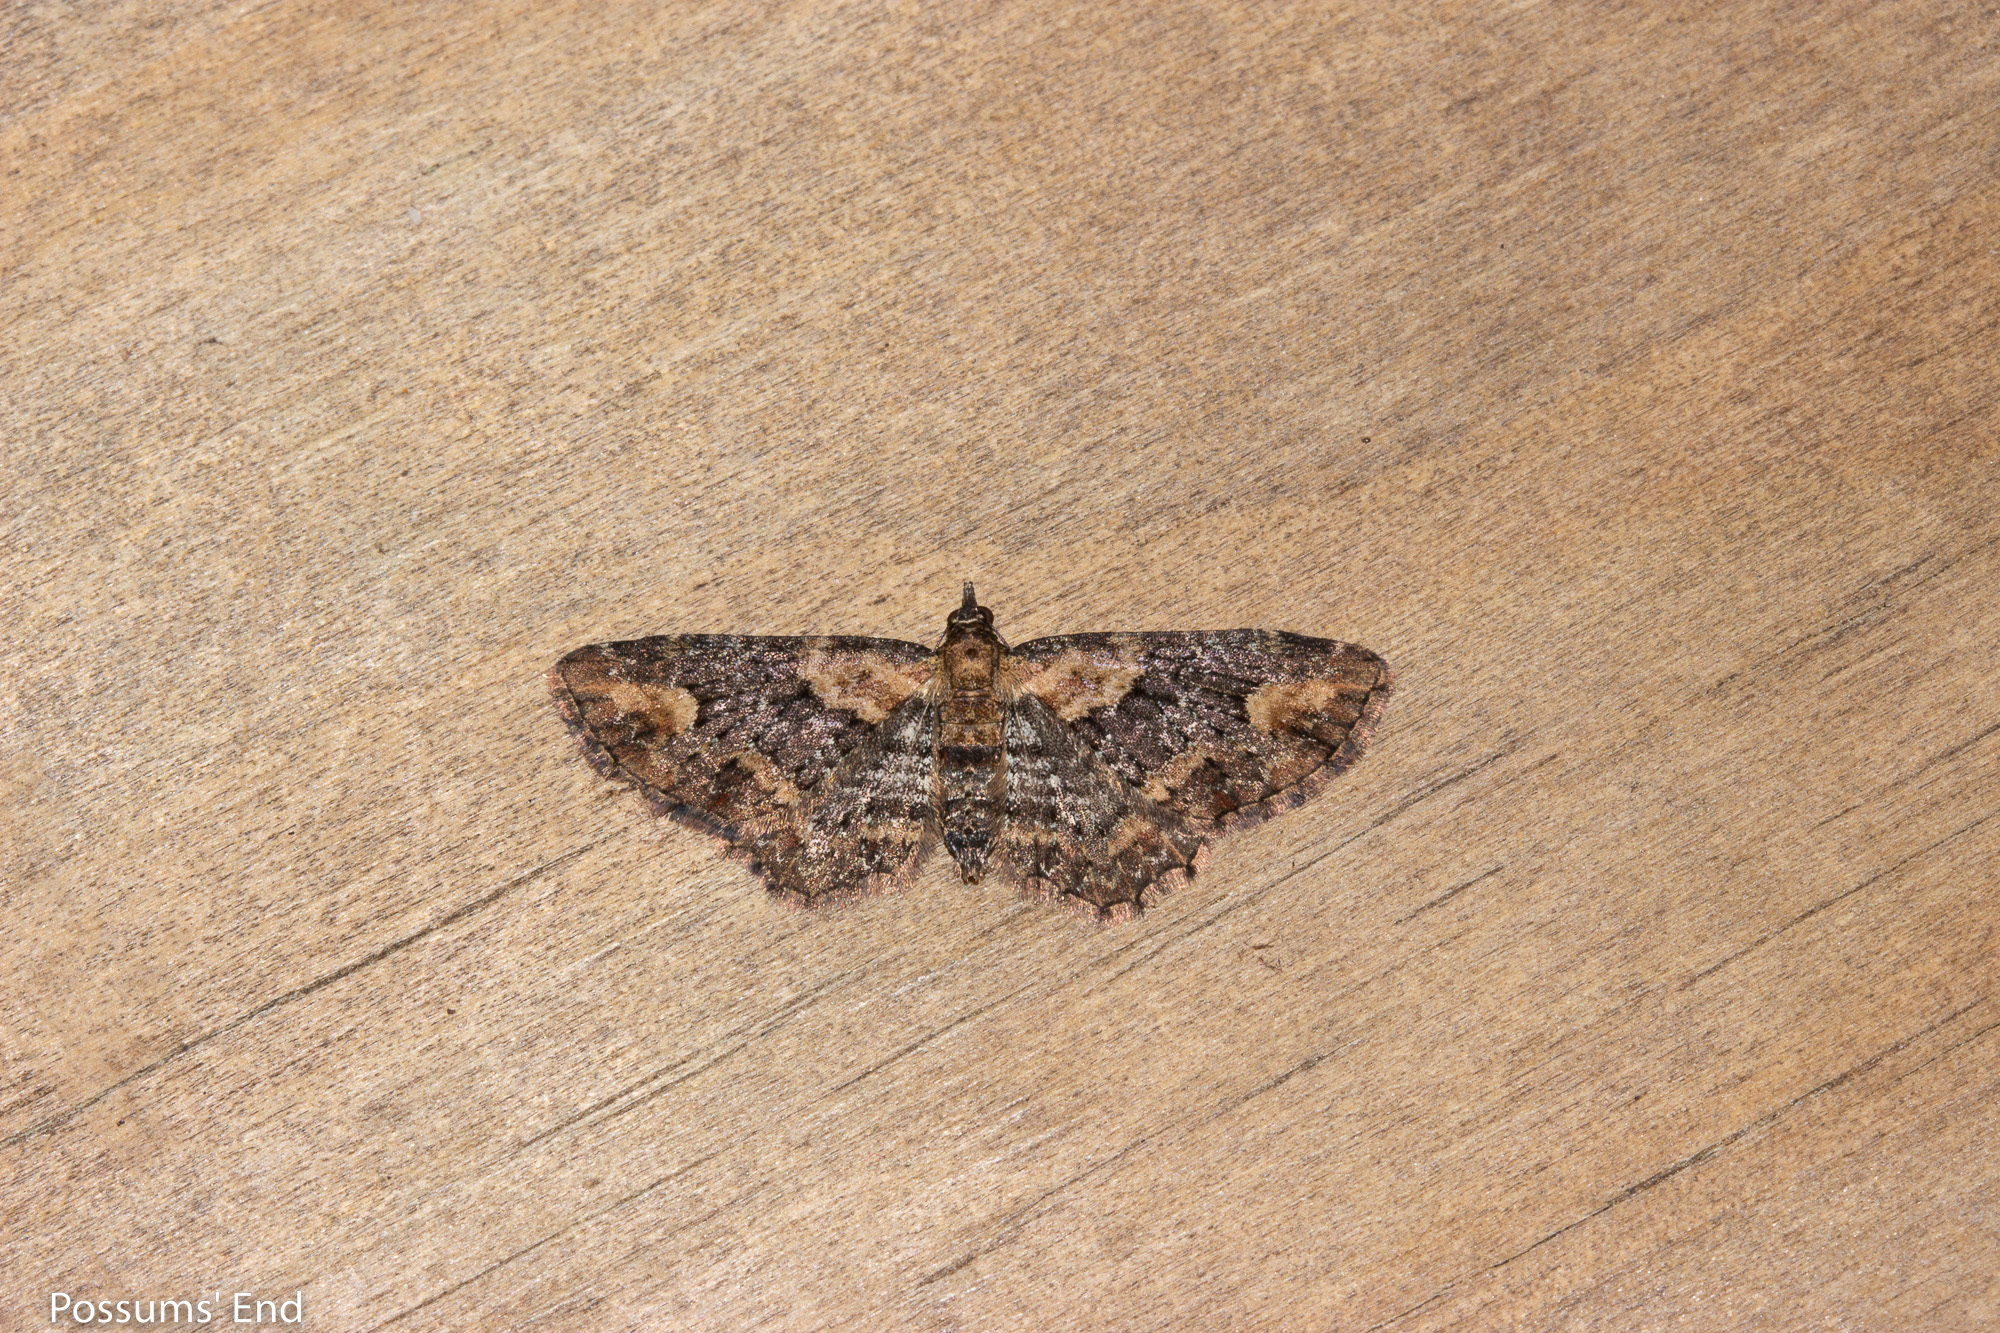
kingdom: Animalia
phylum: Arthropoda
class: Insecta
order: Lepidoptera
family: Geometridae
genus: Pasiphilodes
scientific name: Pasiphilodes testulata
